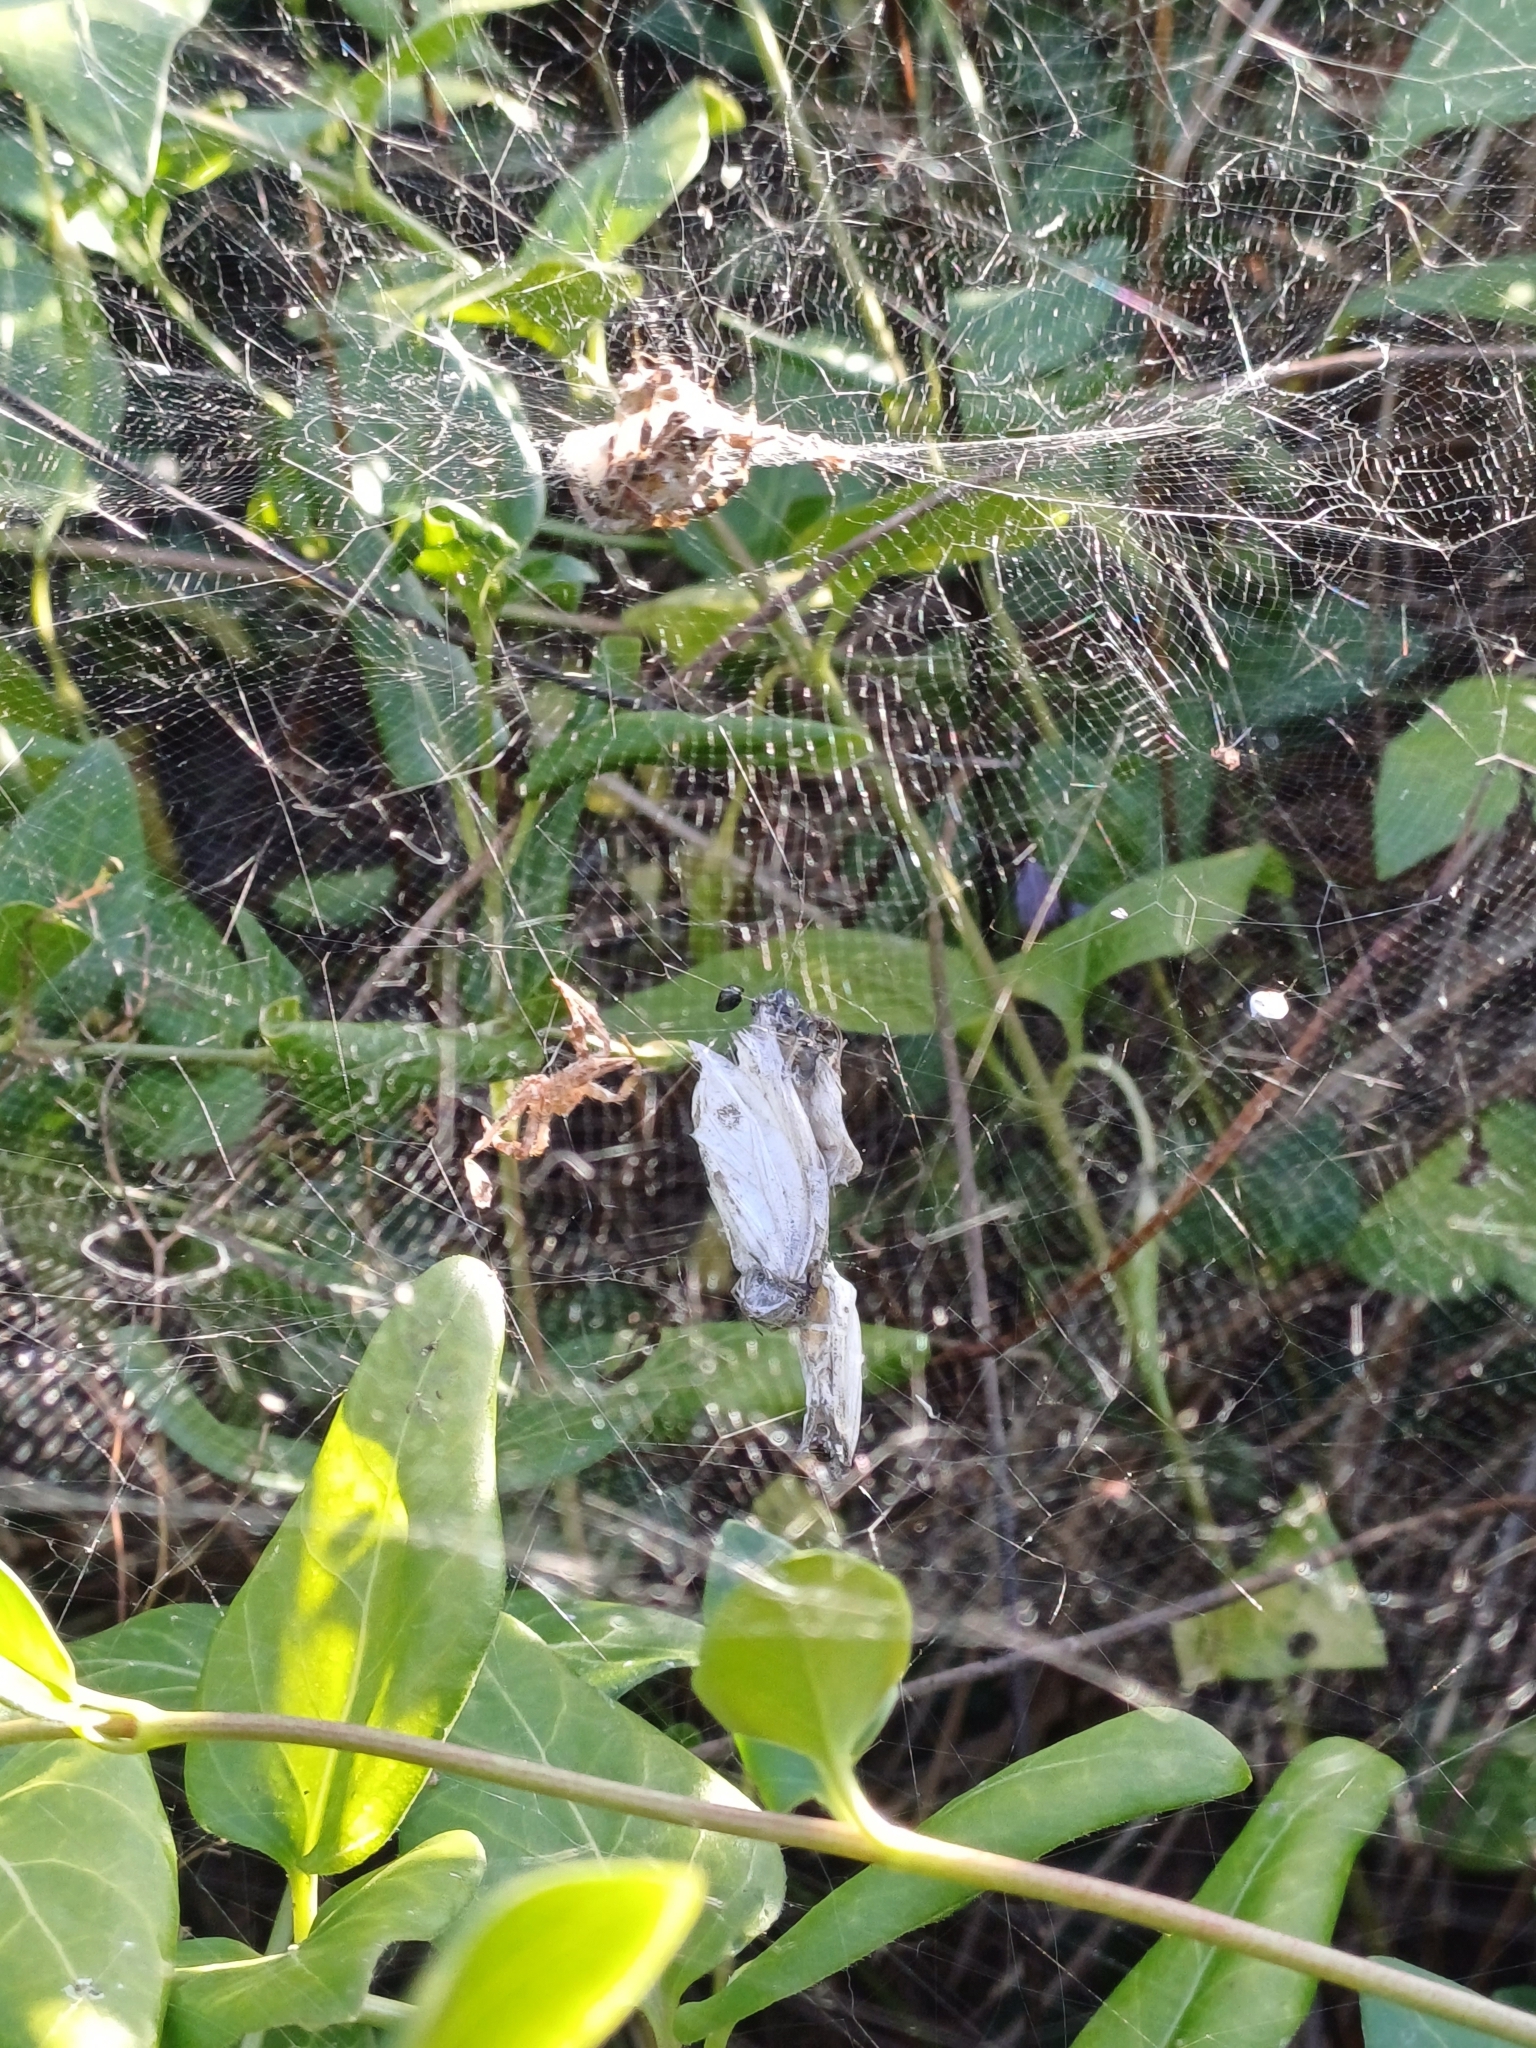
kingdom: Animalia
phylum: Arthropoda
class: Arachnida
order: Araneae
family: Araneidae
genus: Cyrtophora
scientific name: Cyrtophora citricola
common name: Orb weavers
